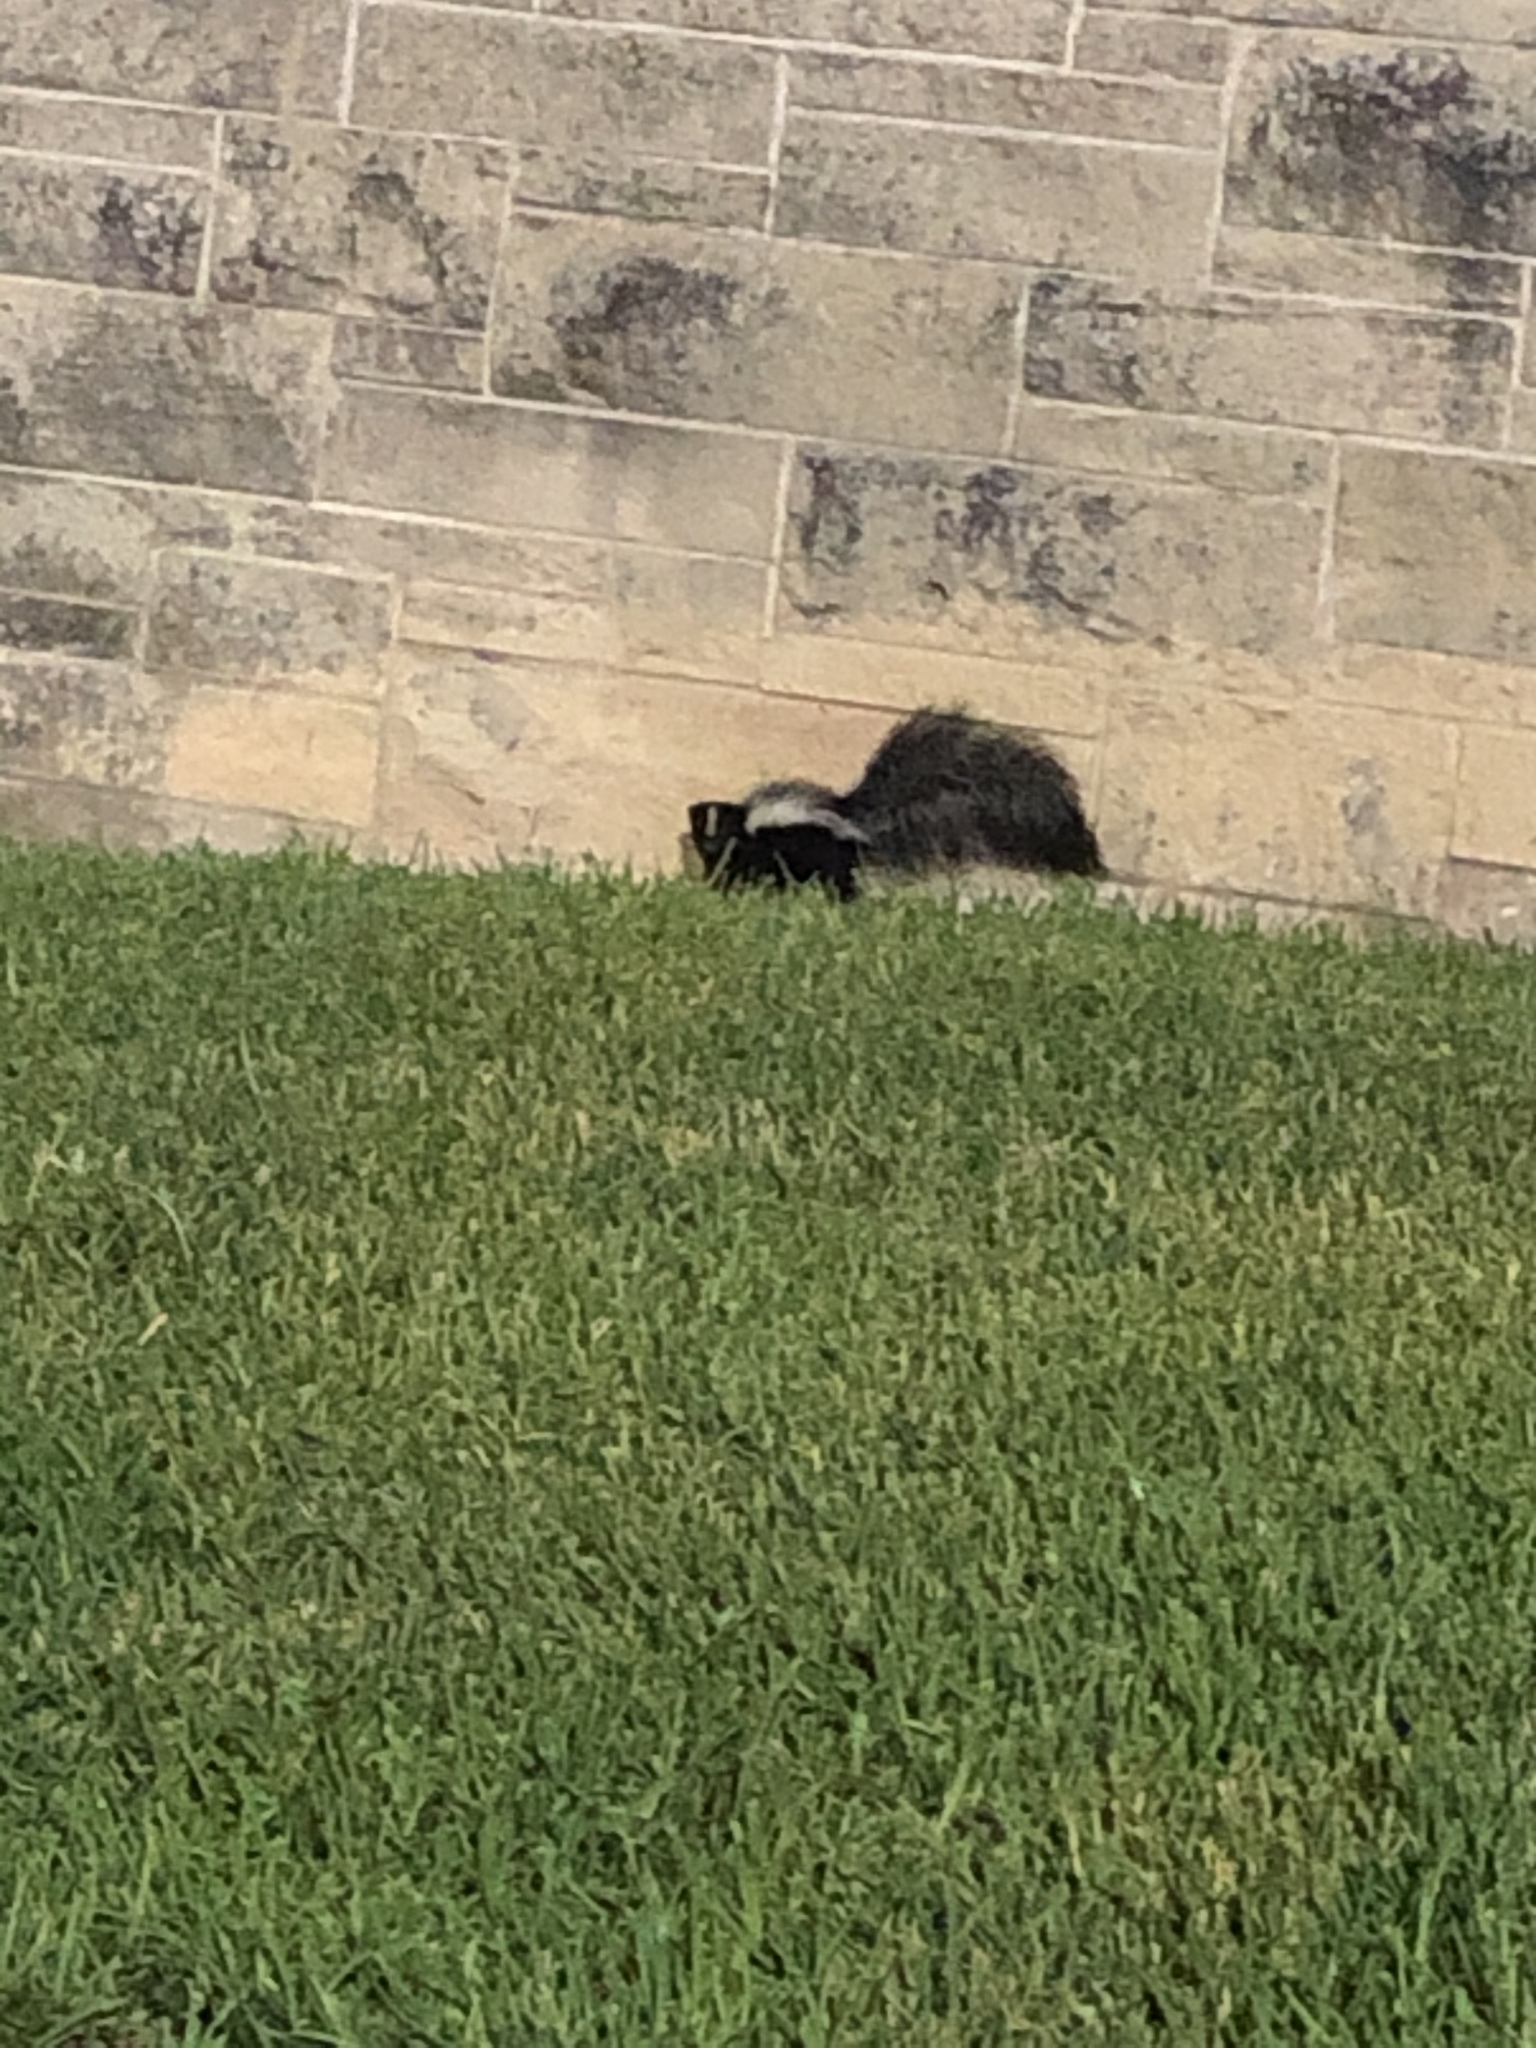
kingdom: Animalia
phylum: Chordata
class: Mammalia
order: Carnivora
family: Mephitidae
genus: Mephitis
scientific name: Mephitis mephitis
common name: Striped skunk
